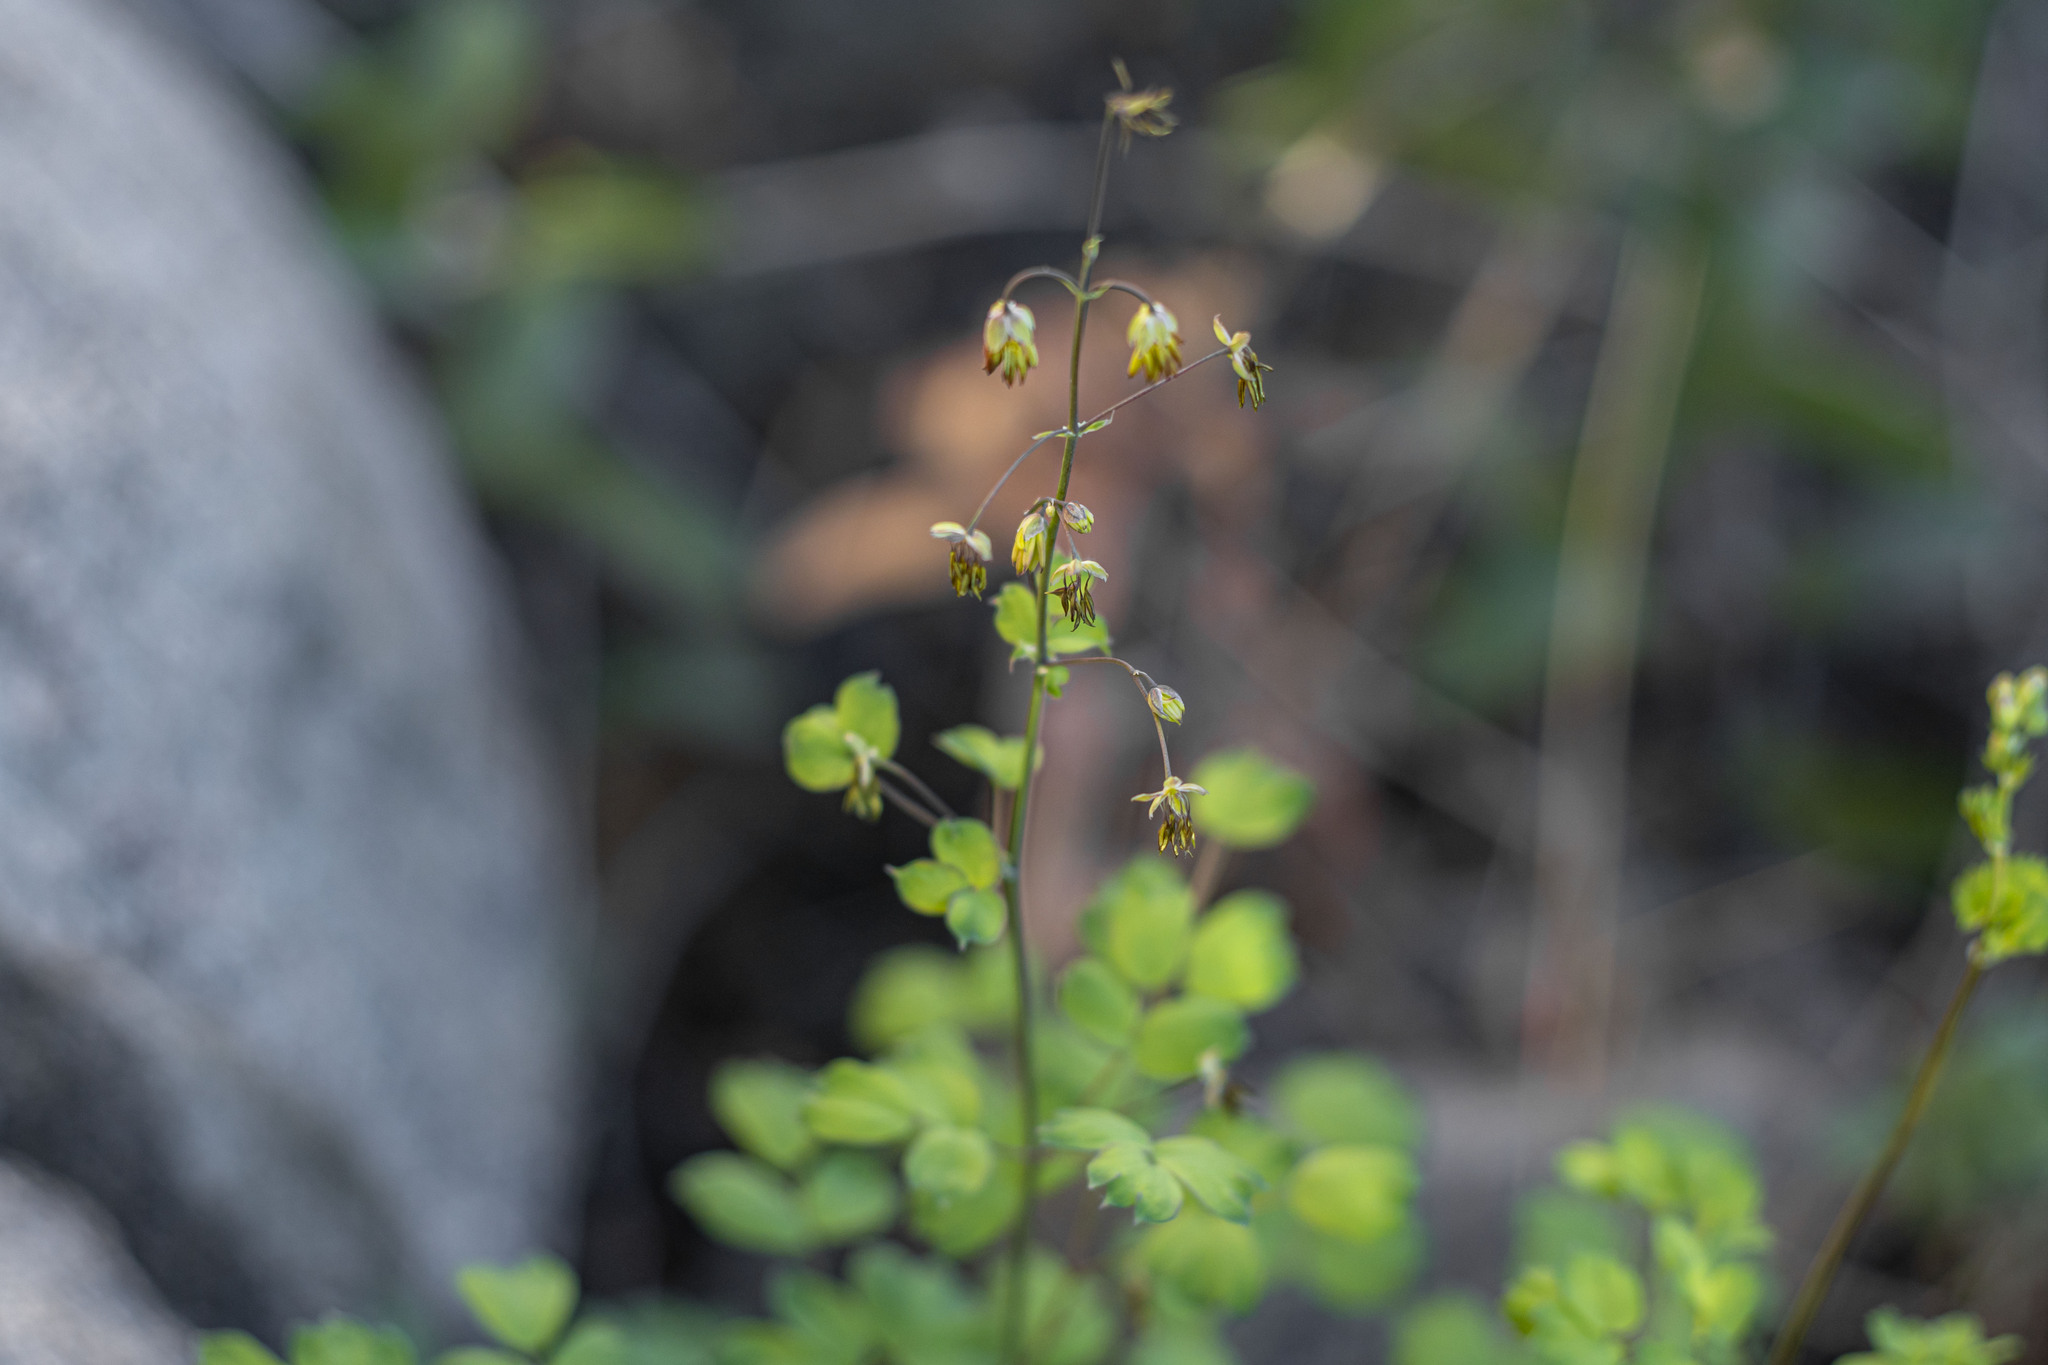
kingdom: Plantae
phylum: Tracheophyta
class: Magnoliopsida
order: Ranunculales
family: Ranunculaceae
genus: Thalictrum
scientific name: Thalictrum fendleri
